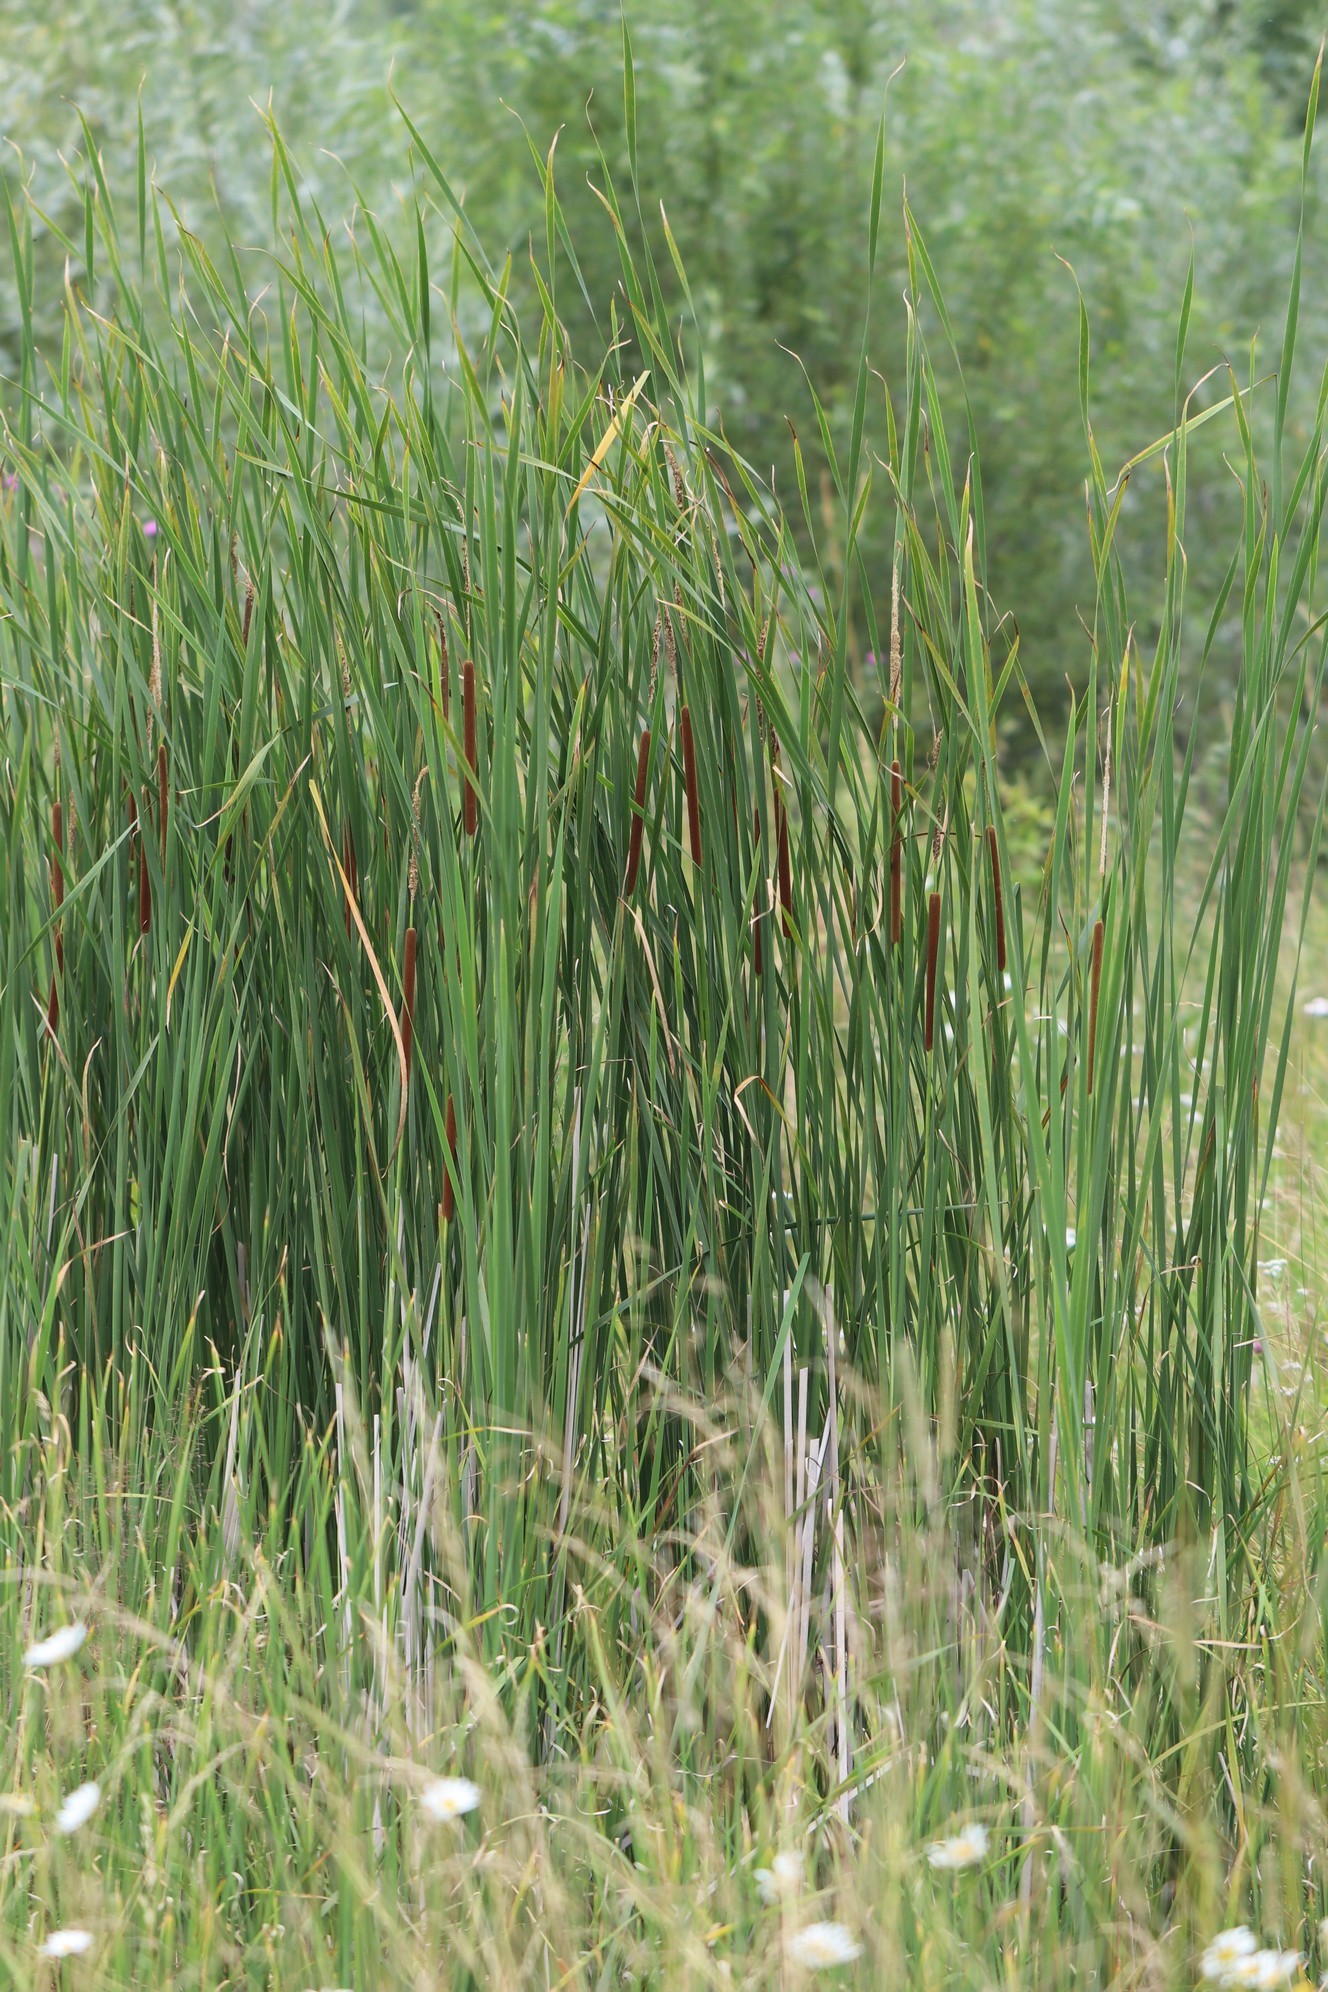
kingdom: Plantae
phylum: Tracheophyta
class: Liliopsida
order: Poales
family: Typhaceae
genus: Typha
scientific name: Typha angustifolia
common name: Lesser bulrush
